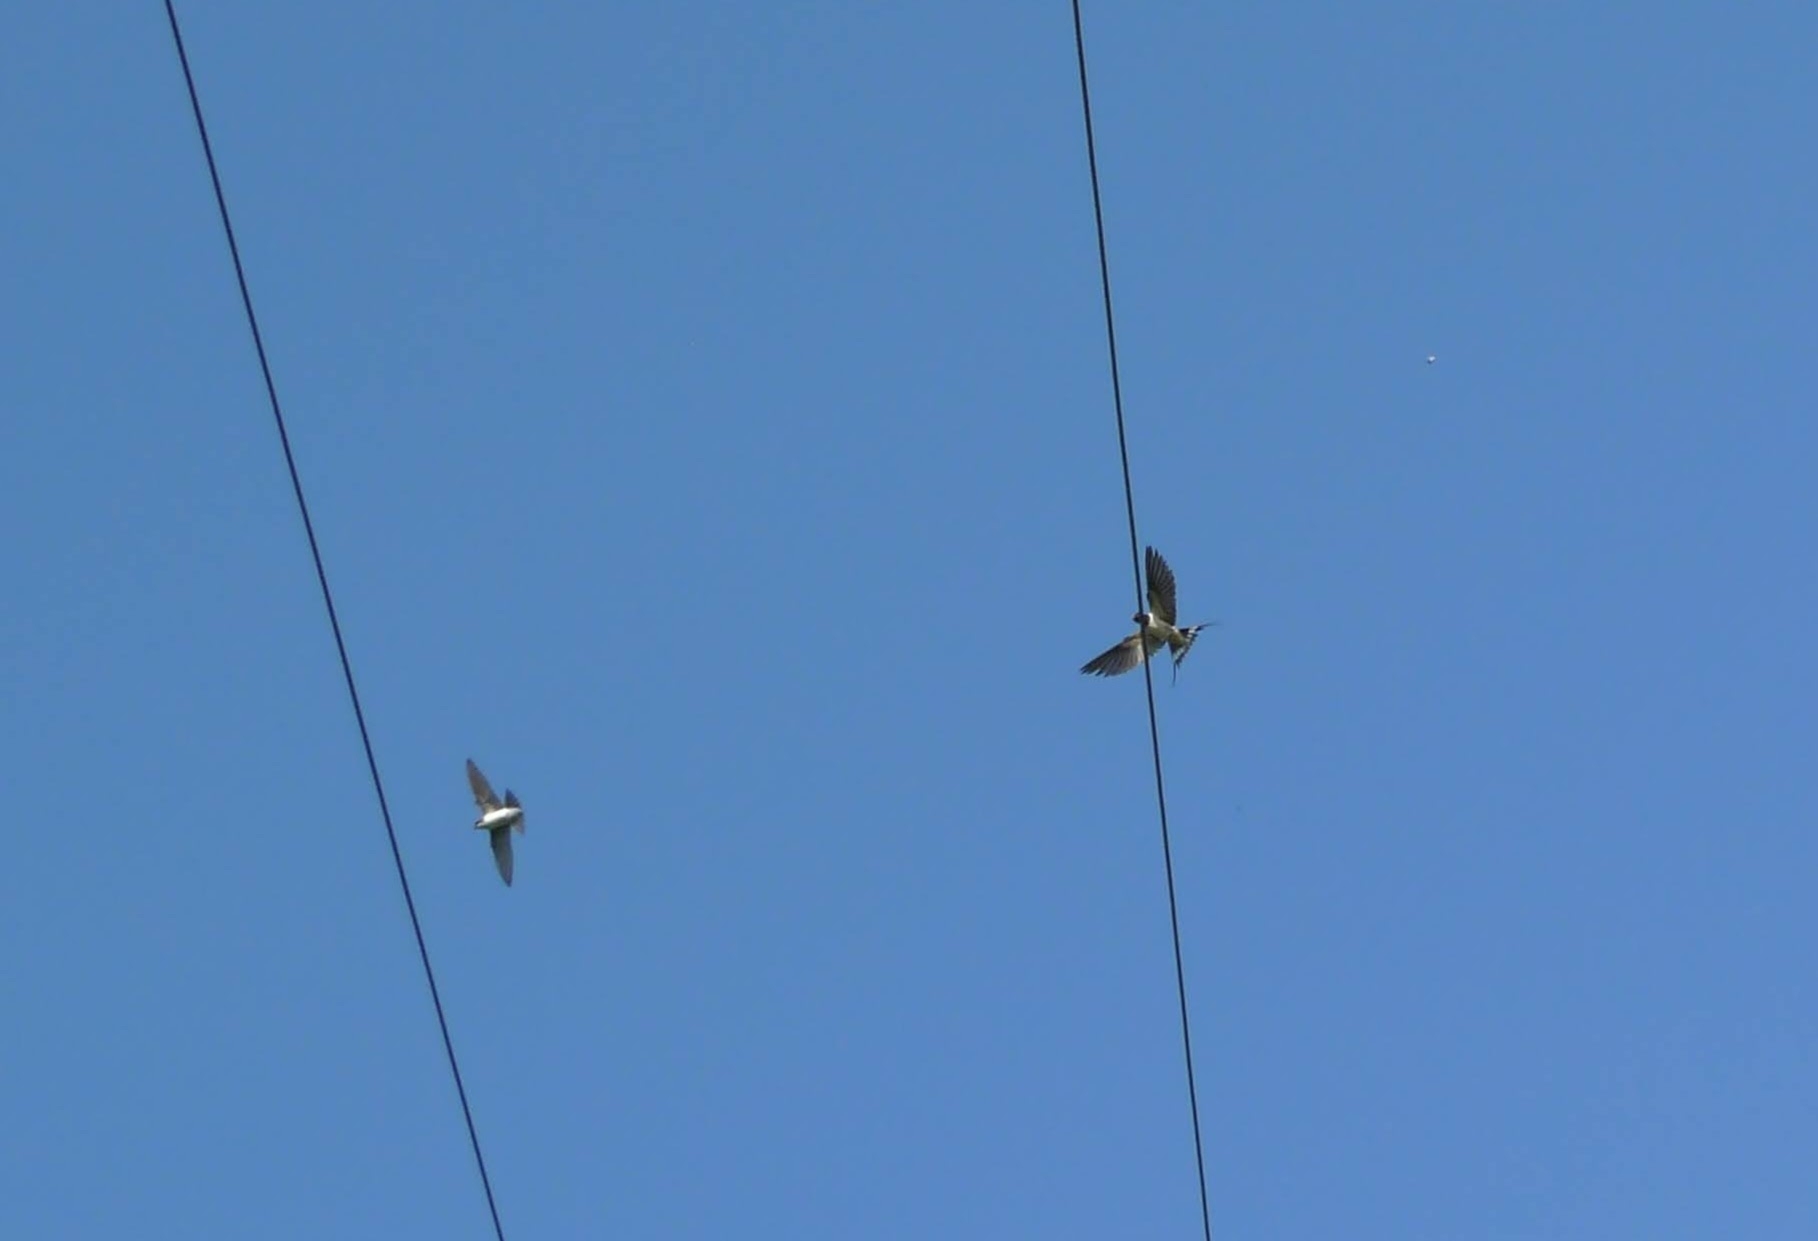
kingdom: Animalia
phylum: Chordata
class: Aves
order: Passeriformes
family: Hirundinidae
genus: Hirundo
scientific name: Hirundo rustica
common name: Barn swallow
